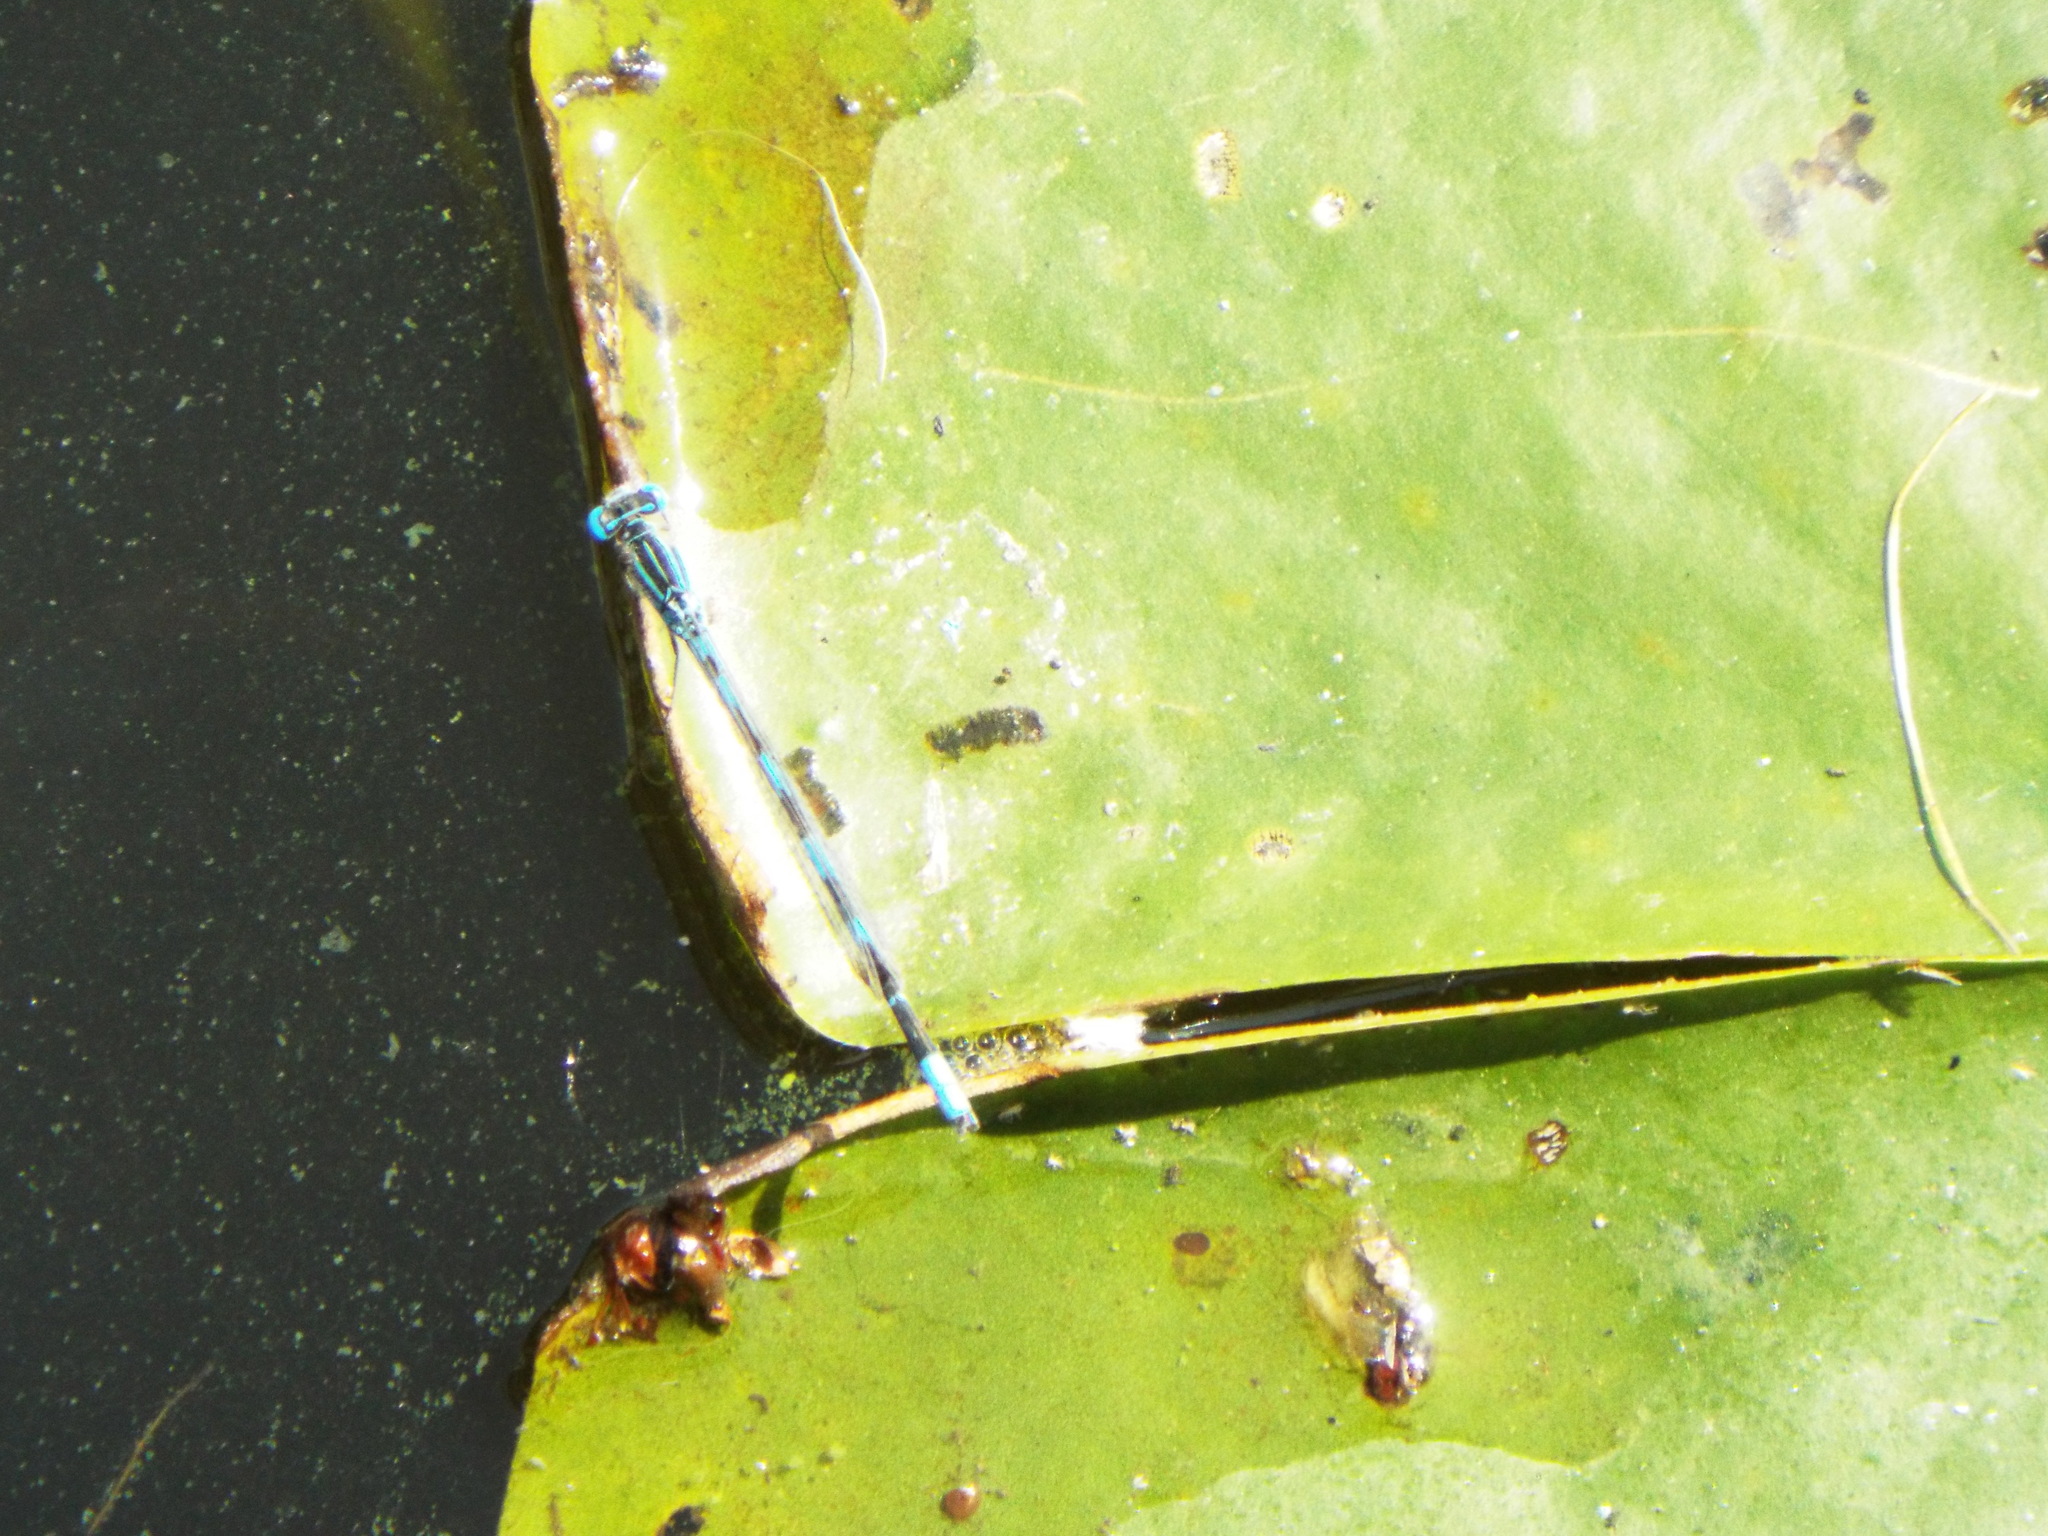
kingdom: Animalia
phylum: Arthropoda
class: Insecta
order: Odonata
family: Coenagrionidae
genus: Enallagma
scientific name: Enallagma durum
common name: Big bluet
